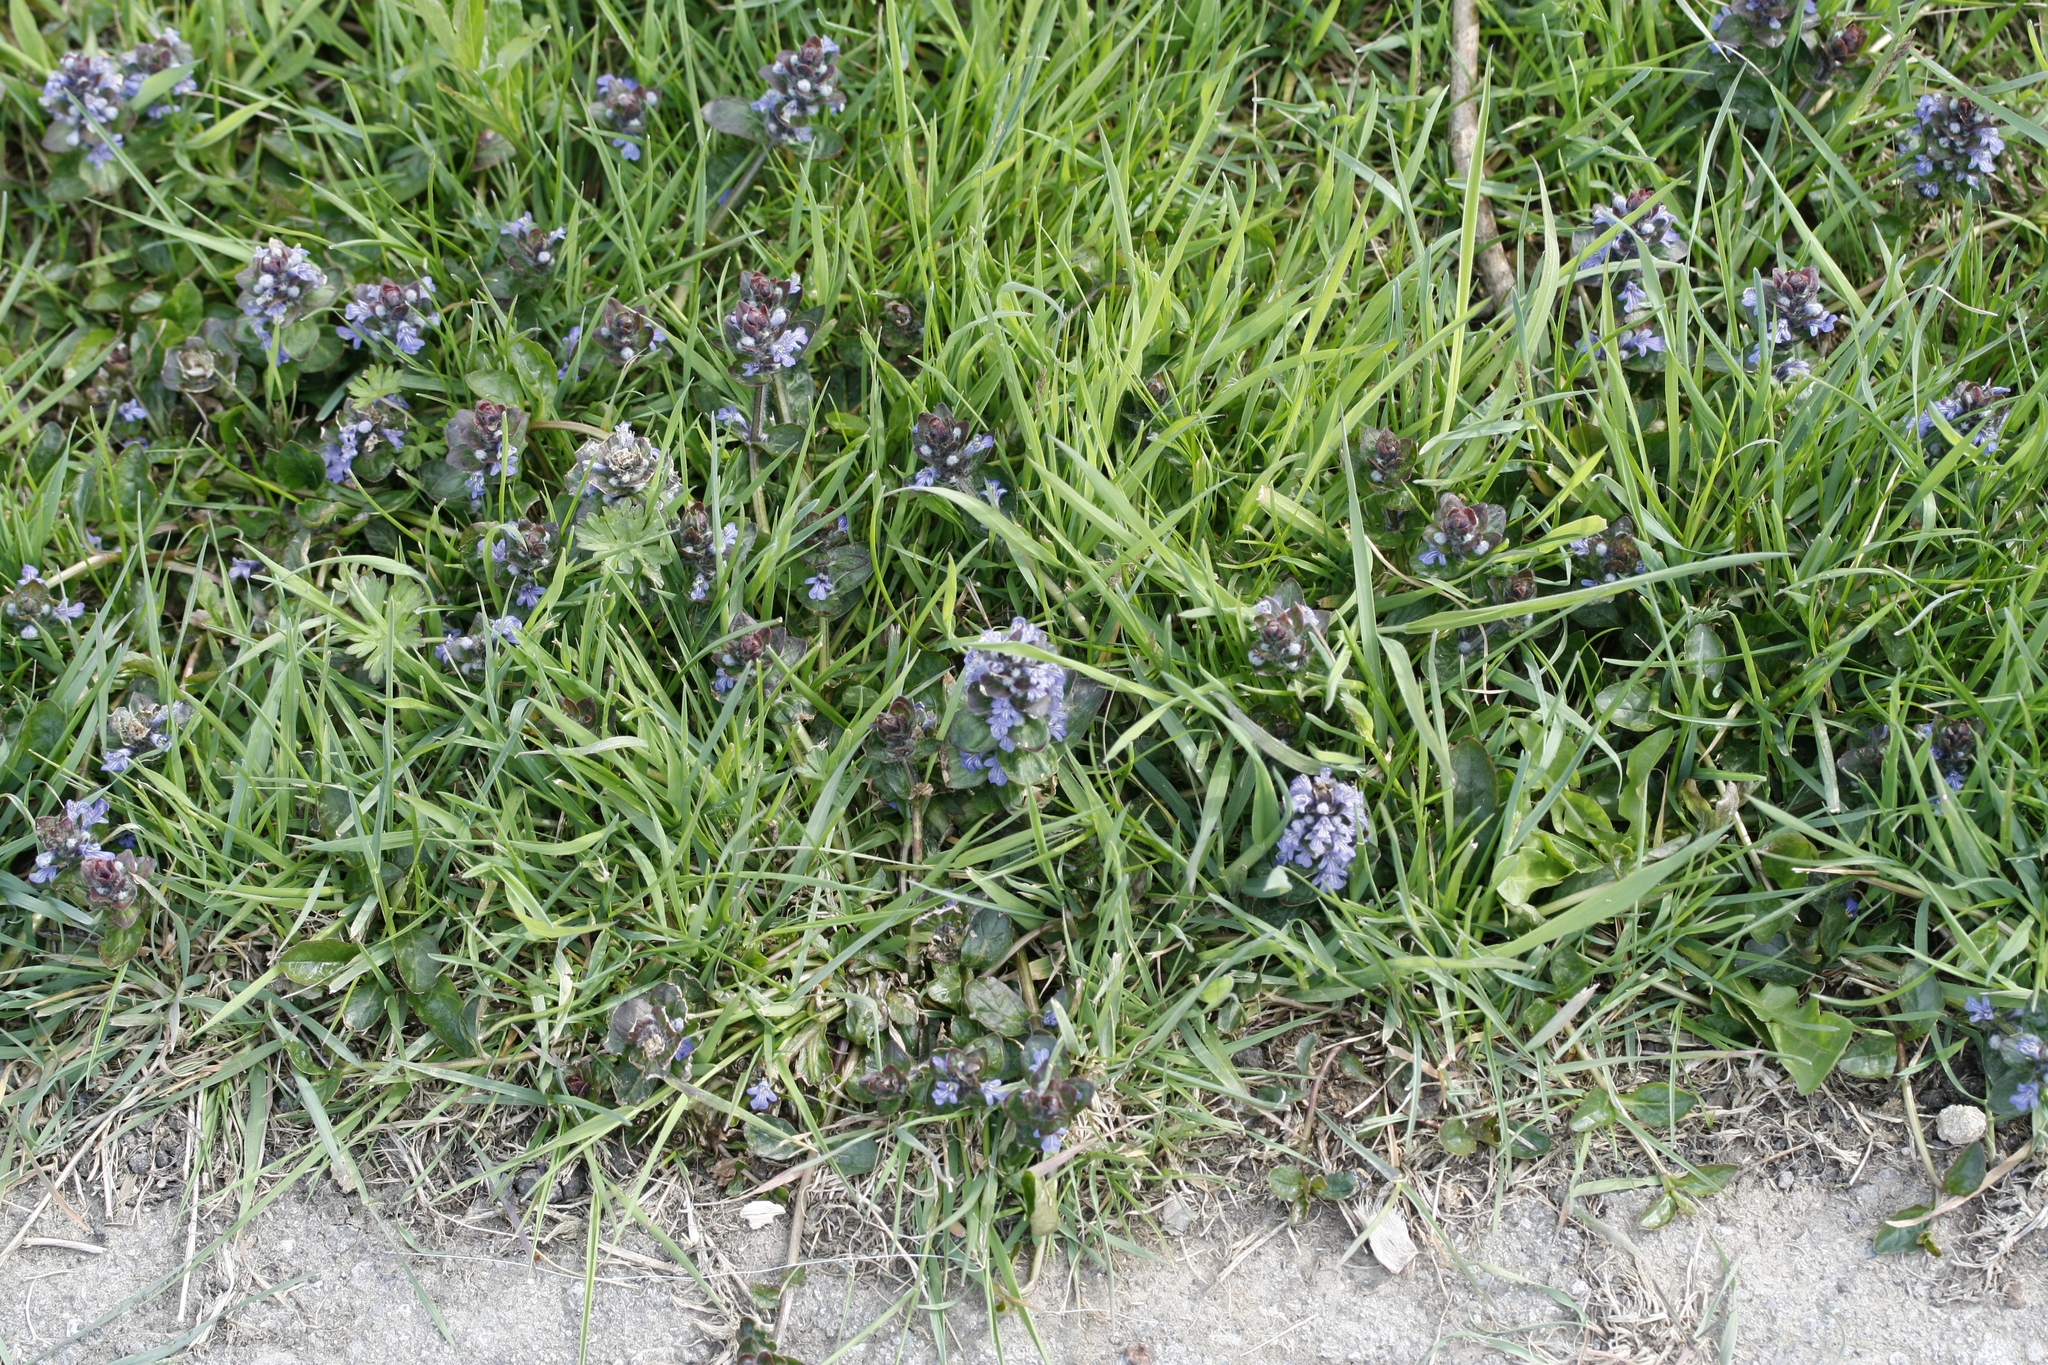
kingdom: Plantae
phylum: Tracheophyta
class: Magnoliopsida
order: Lamiales
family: Lamiaceae
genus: Ajuga
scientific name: Ajuga reptans
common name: Bugle
